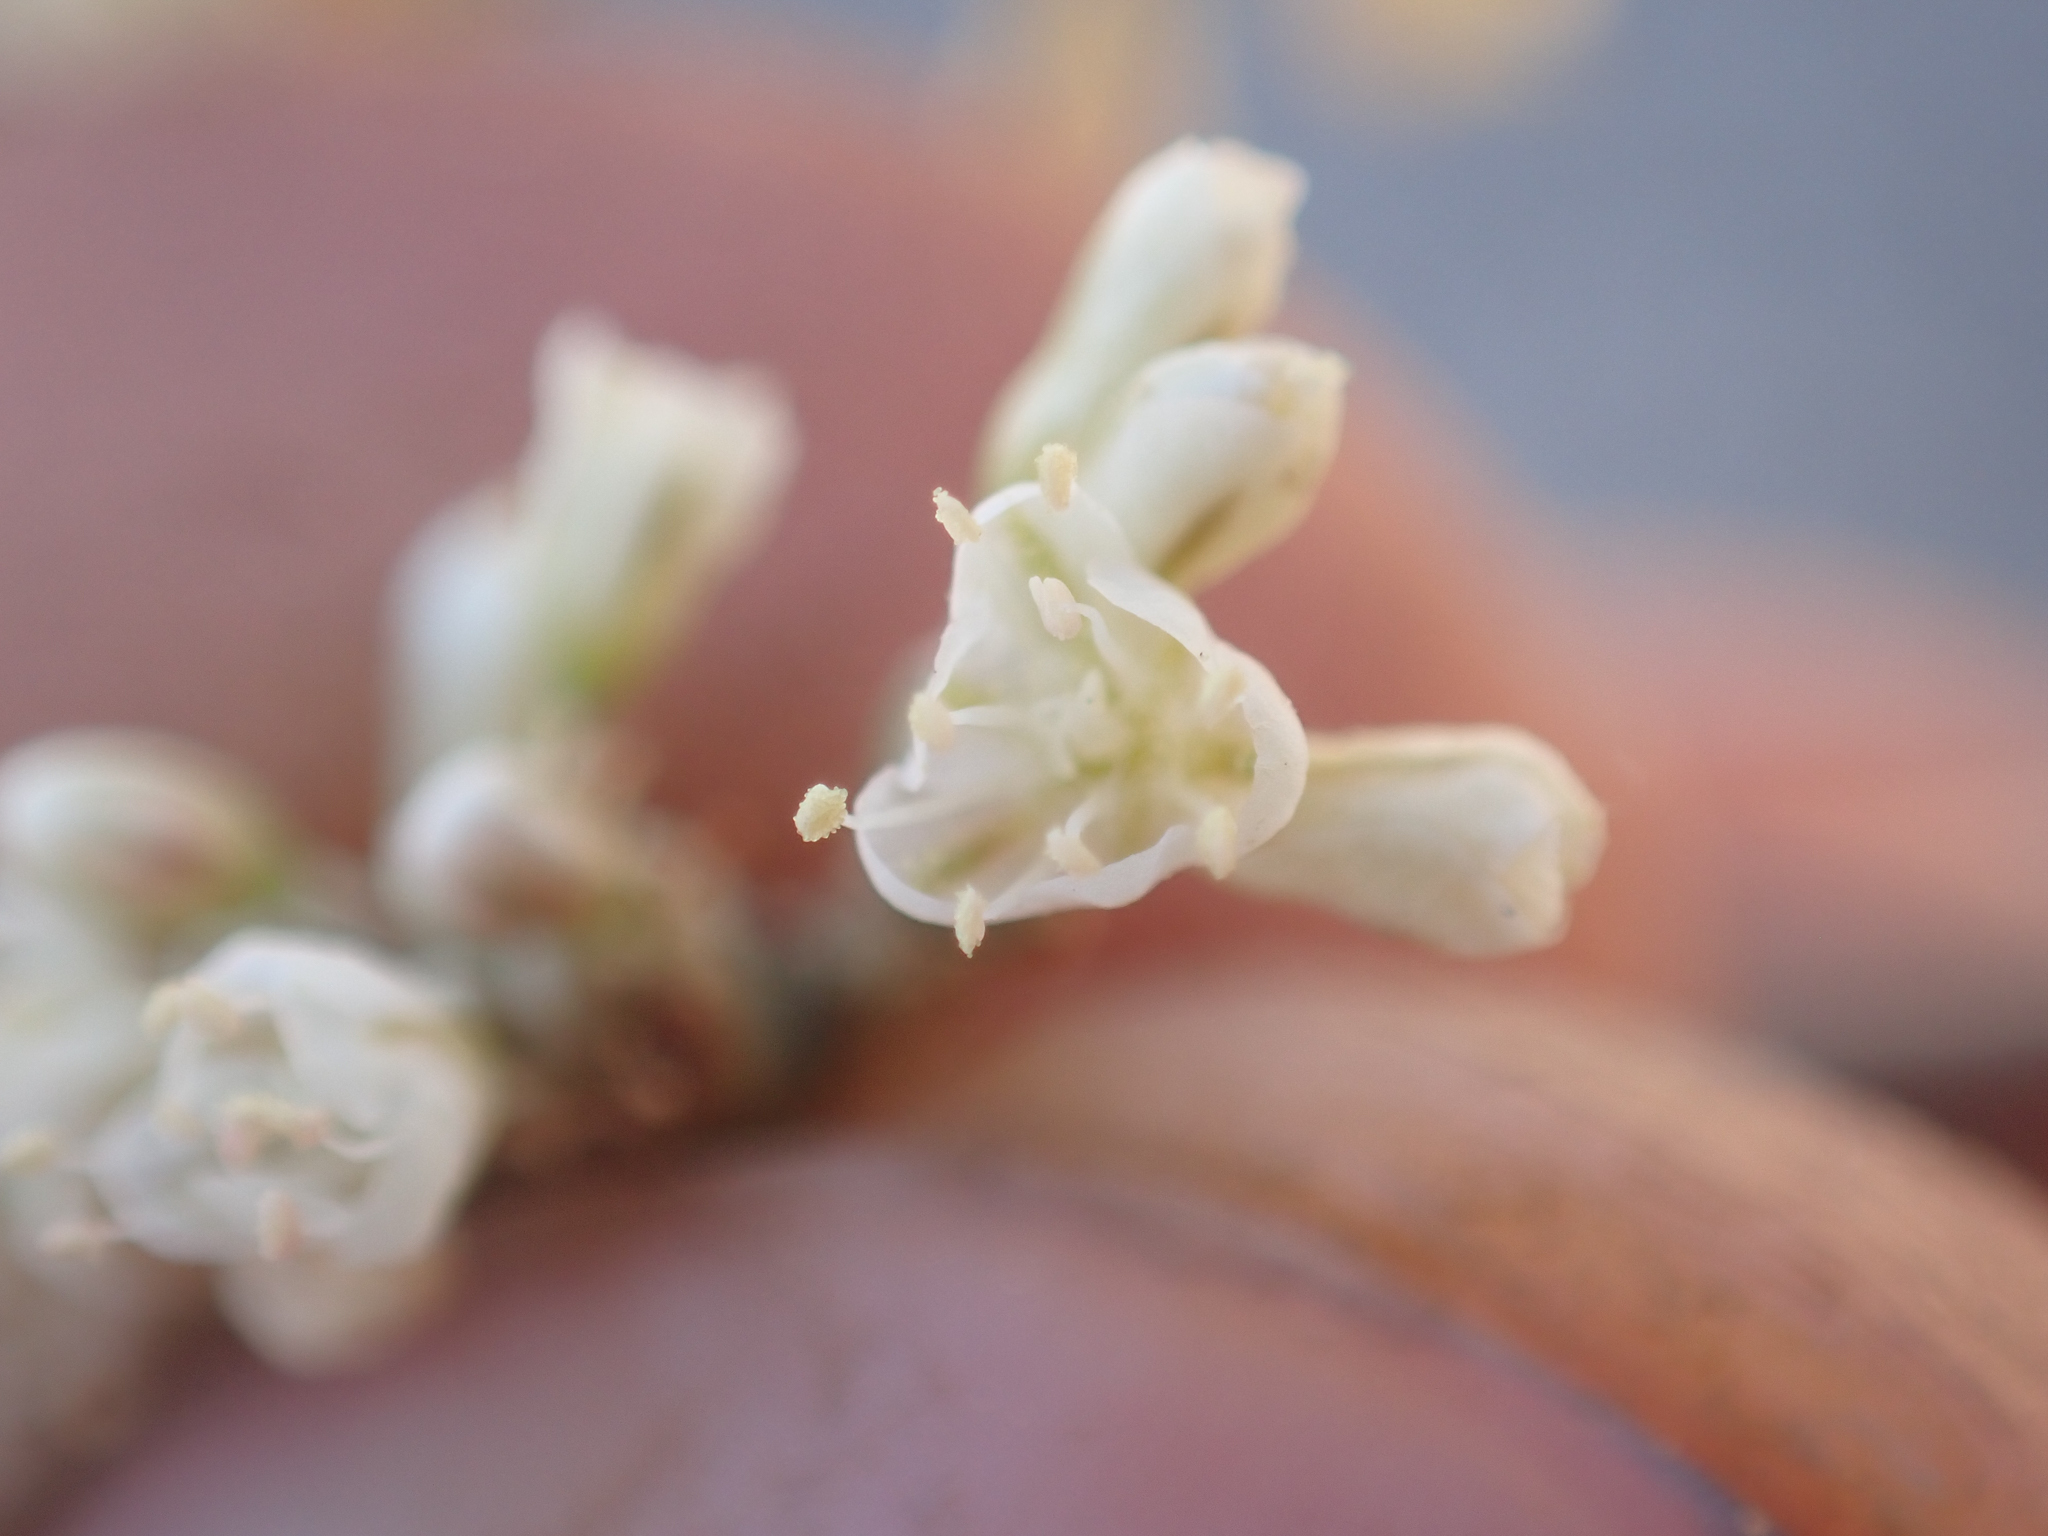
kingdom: Plantae
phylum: Tracheophyta
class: Magnoliopsida
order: Caryophyllales
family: Polygonaceae
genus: Eriogonum
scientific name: Eriogonum plumatella
